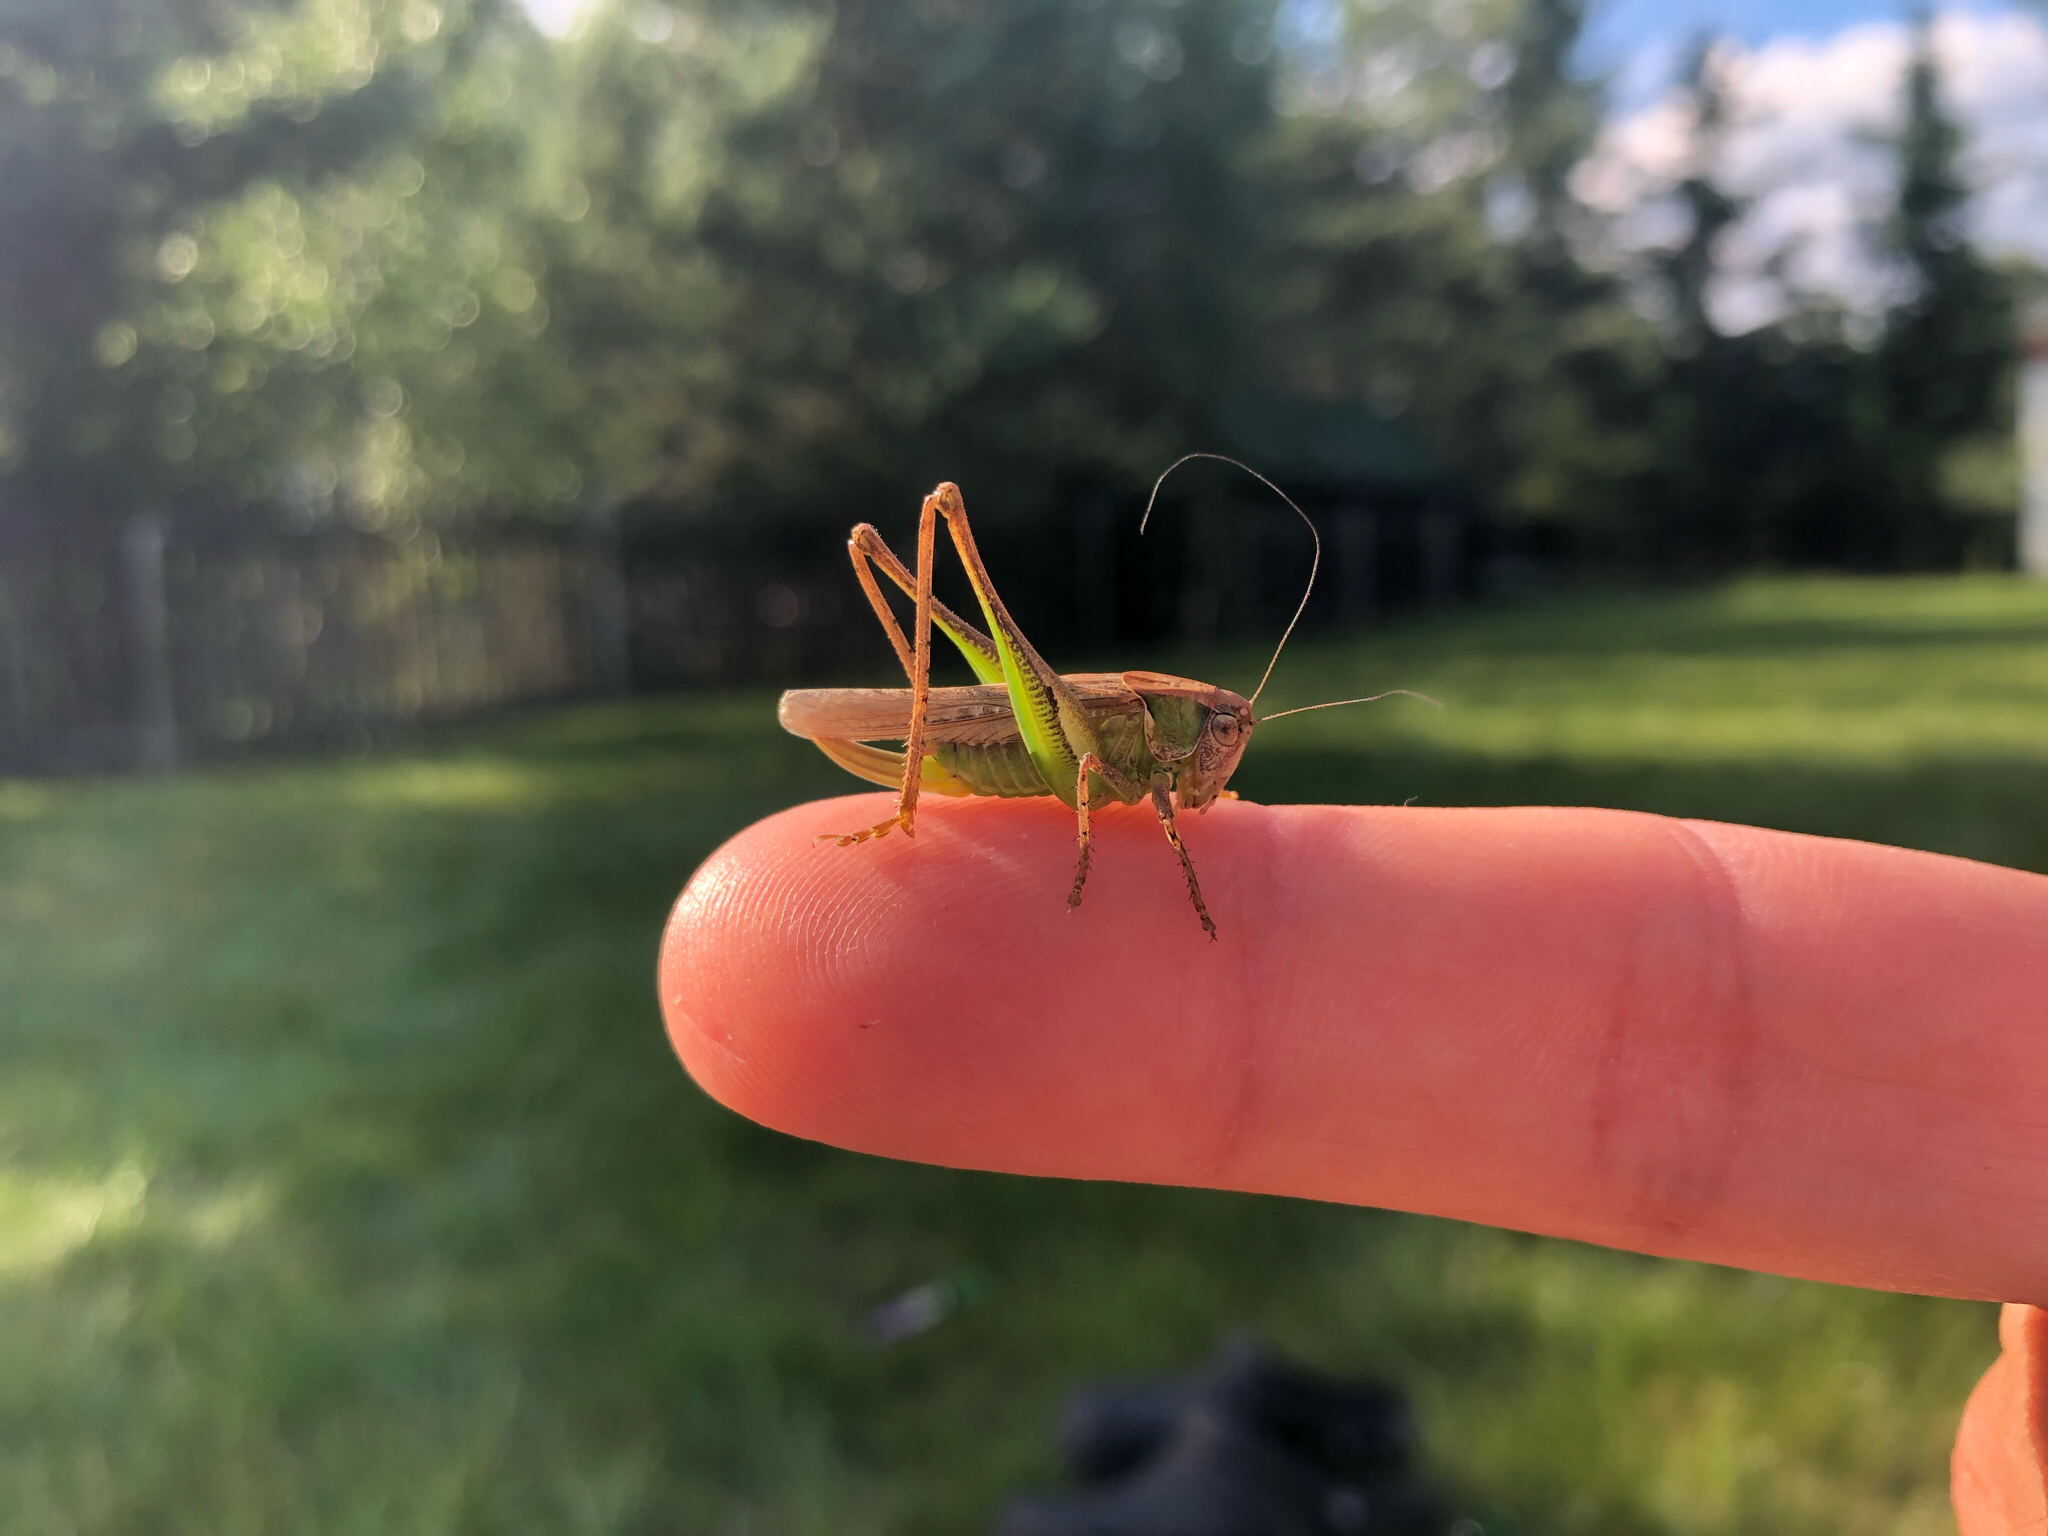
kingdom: Animalia
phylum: Arthropoda
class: Insecta
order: Orthoptera
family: Tettigoniidae
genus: Platycleis
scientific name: Platycleis albopunctata
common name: Grey bush-cricket
